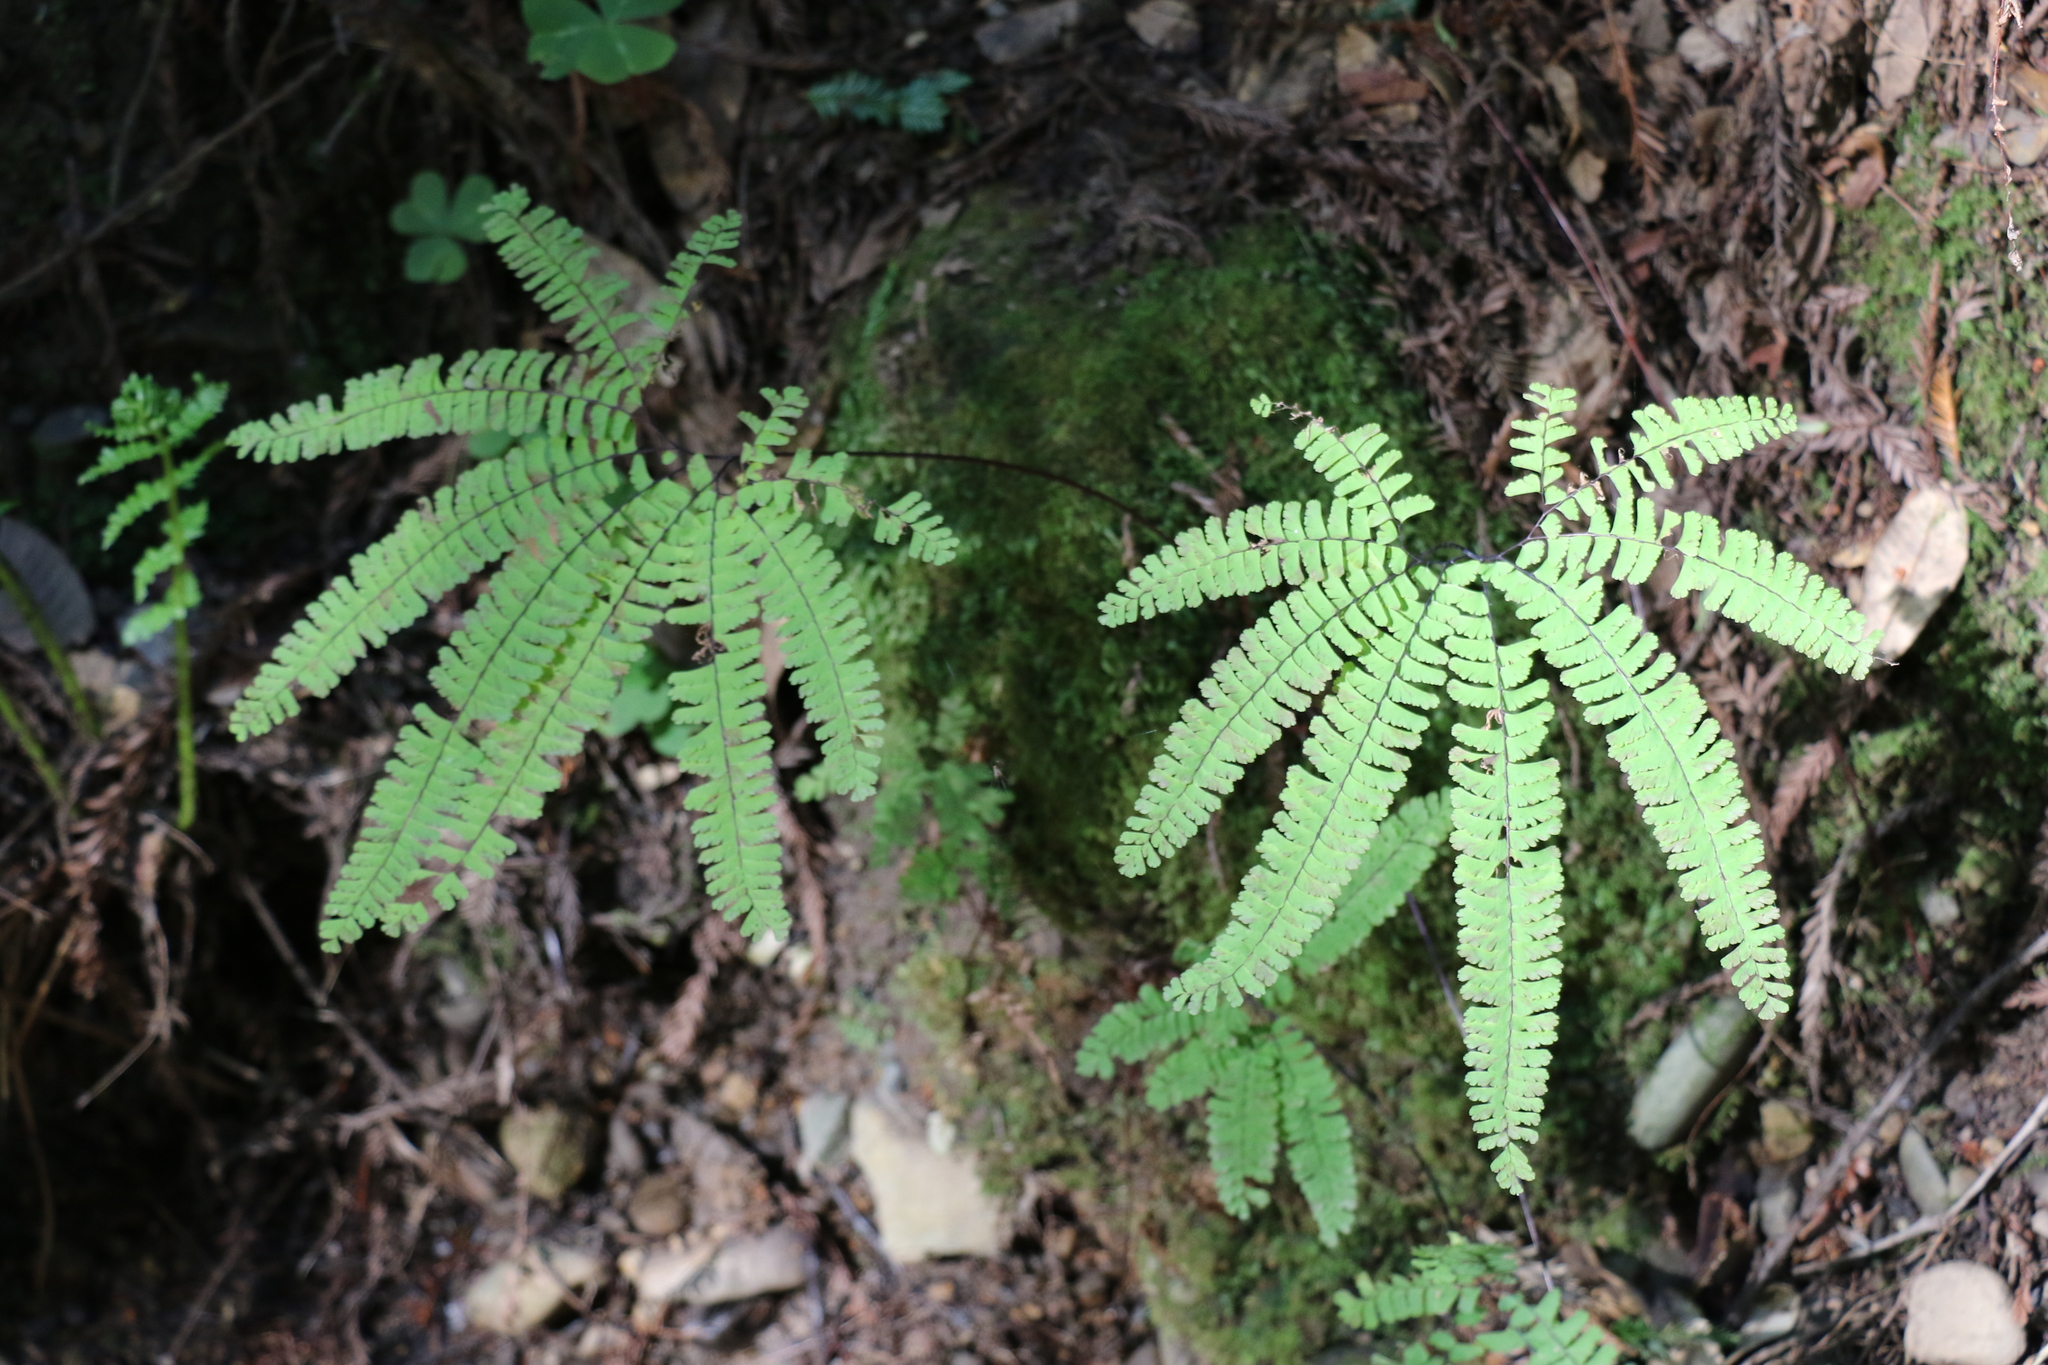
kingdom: Plantae
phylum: Tracheophyta
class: Polypodiopsida
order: Polypodiales
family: Pteridaceae
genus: Adiantum
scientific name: Adiantum aleuticum
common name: Aleutian maidenhair fern
